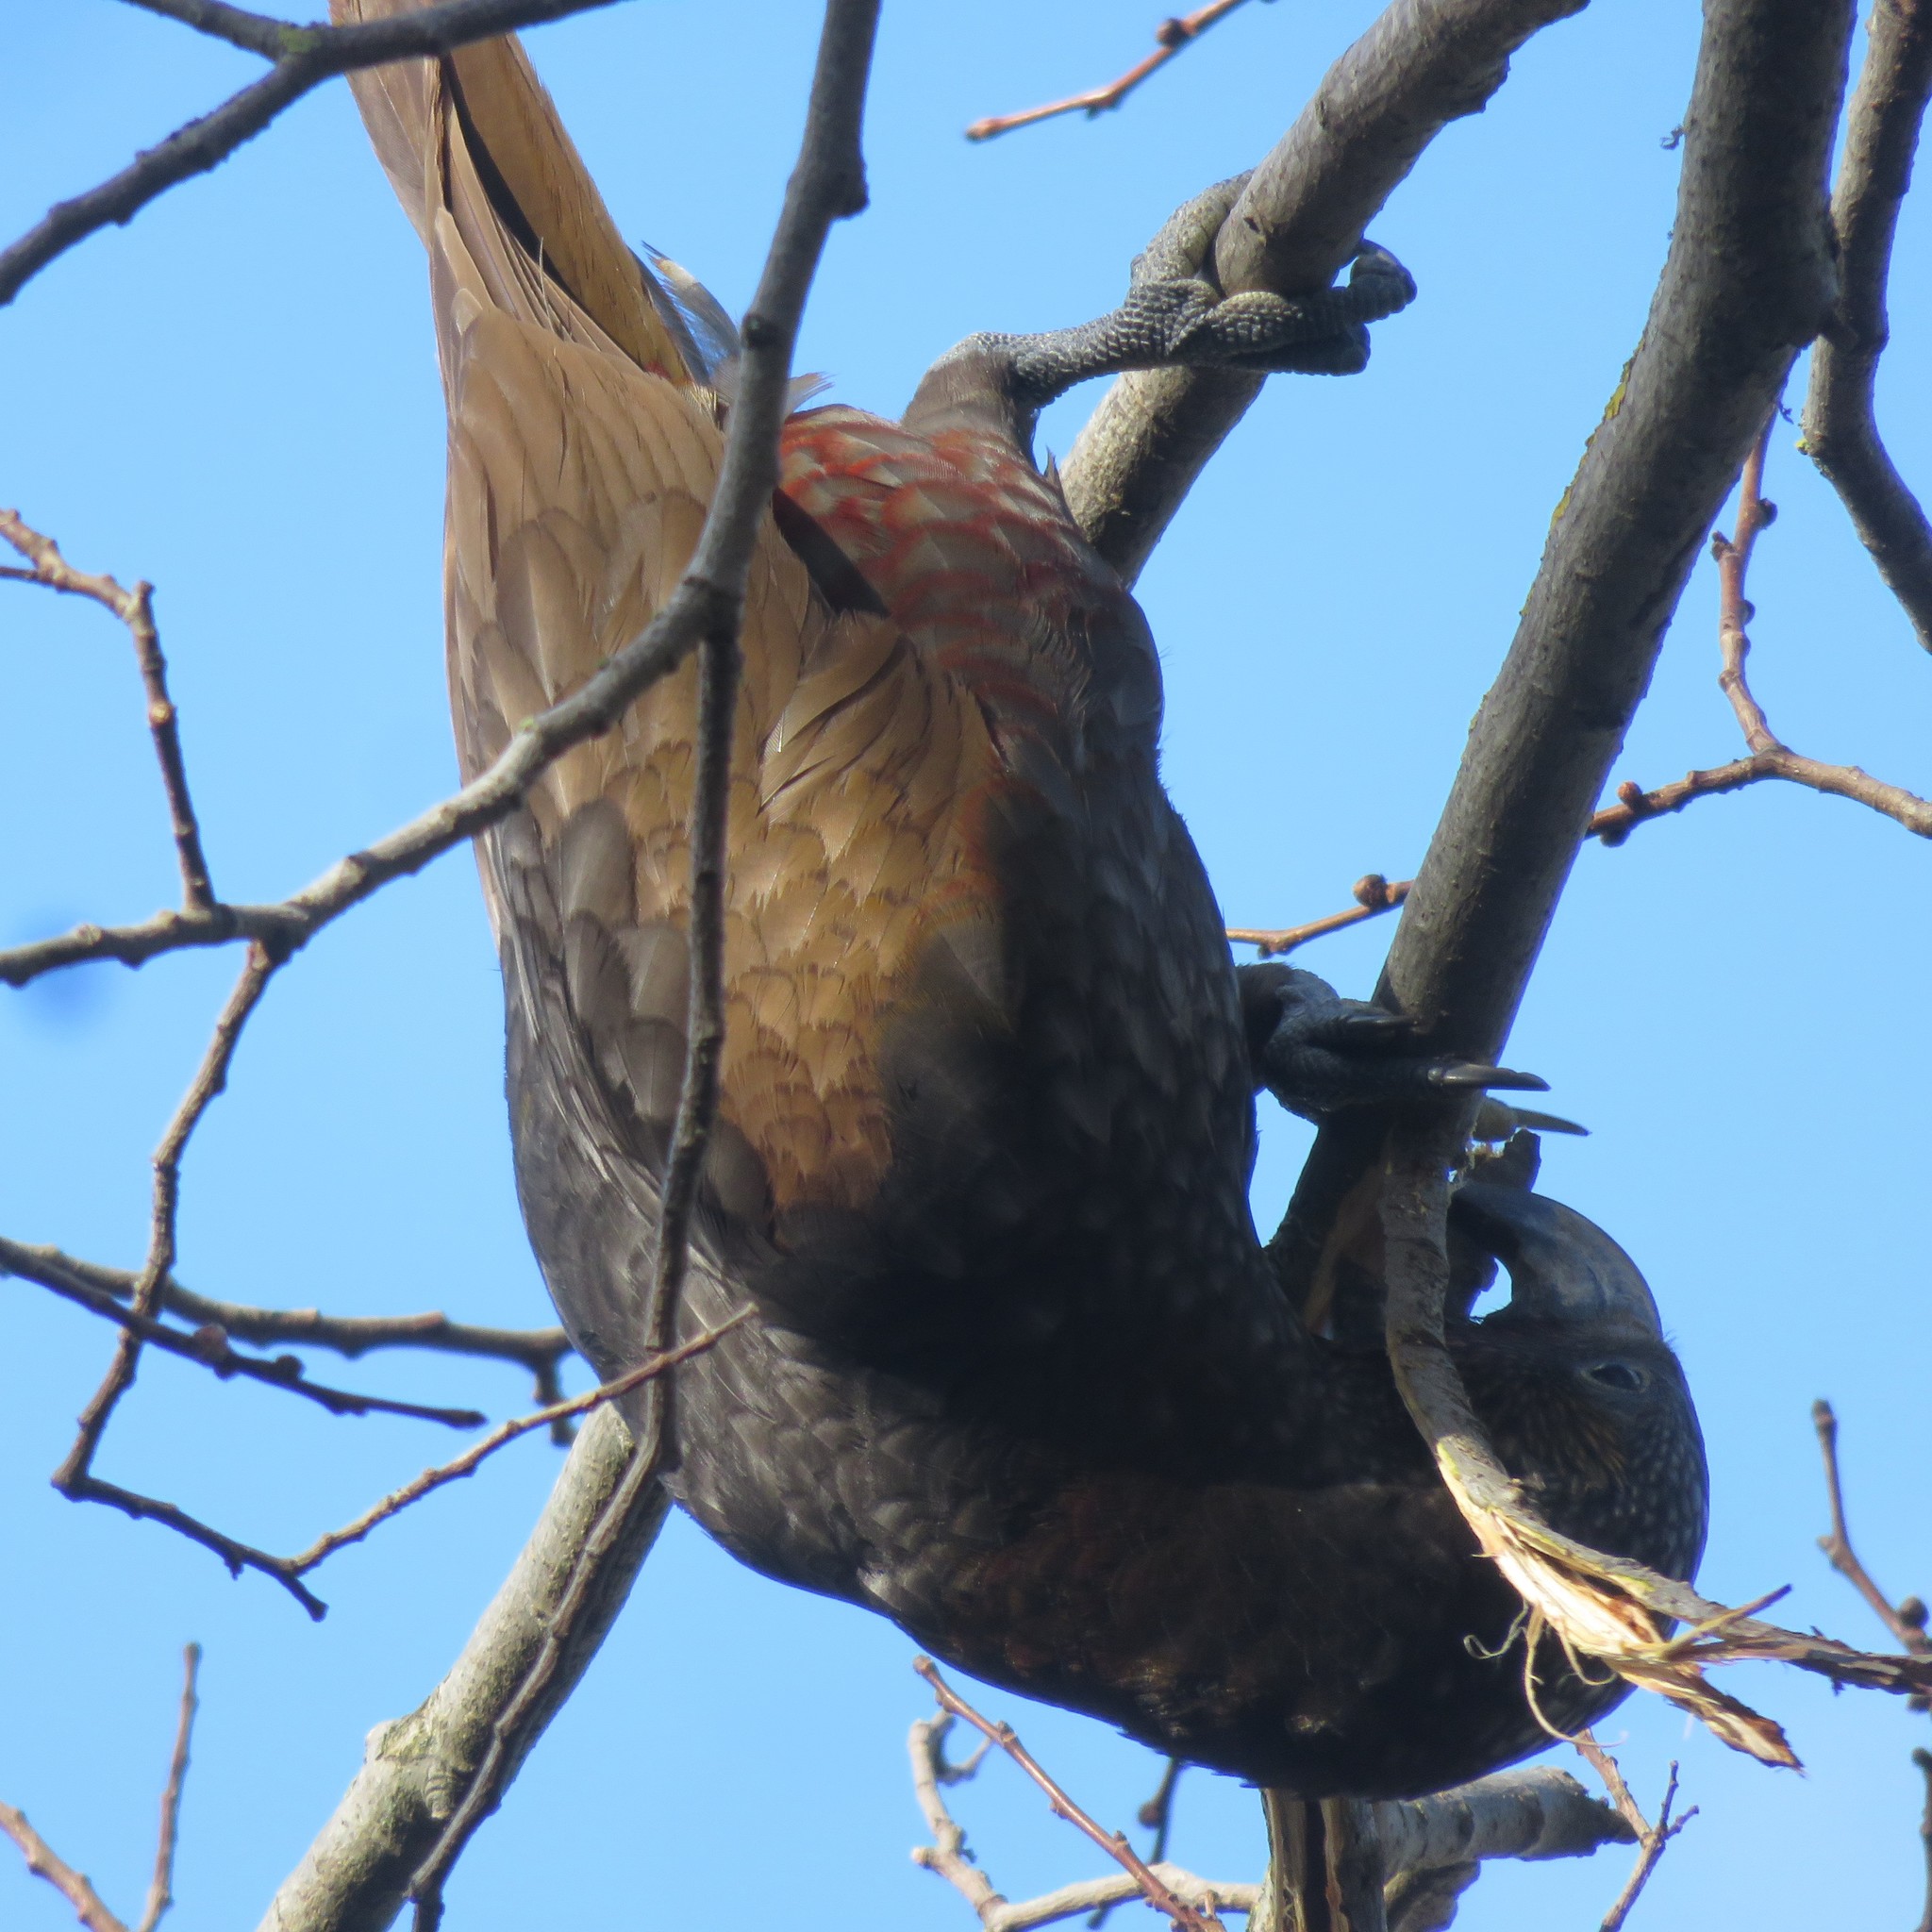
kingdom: Animalia
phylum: Chordata
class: Aves
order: Psittaciformes
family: Psittacidae
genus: Nestor
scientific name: Nestor meridionalis
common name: New zealand kaka
